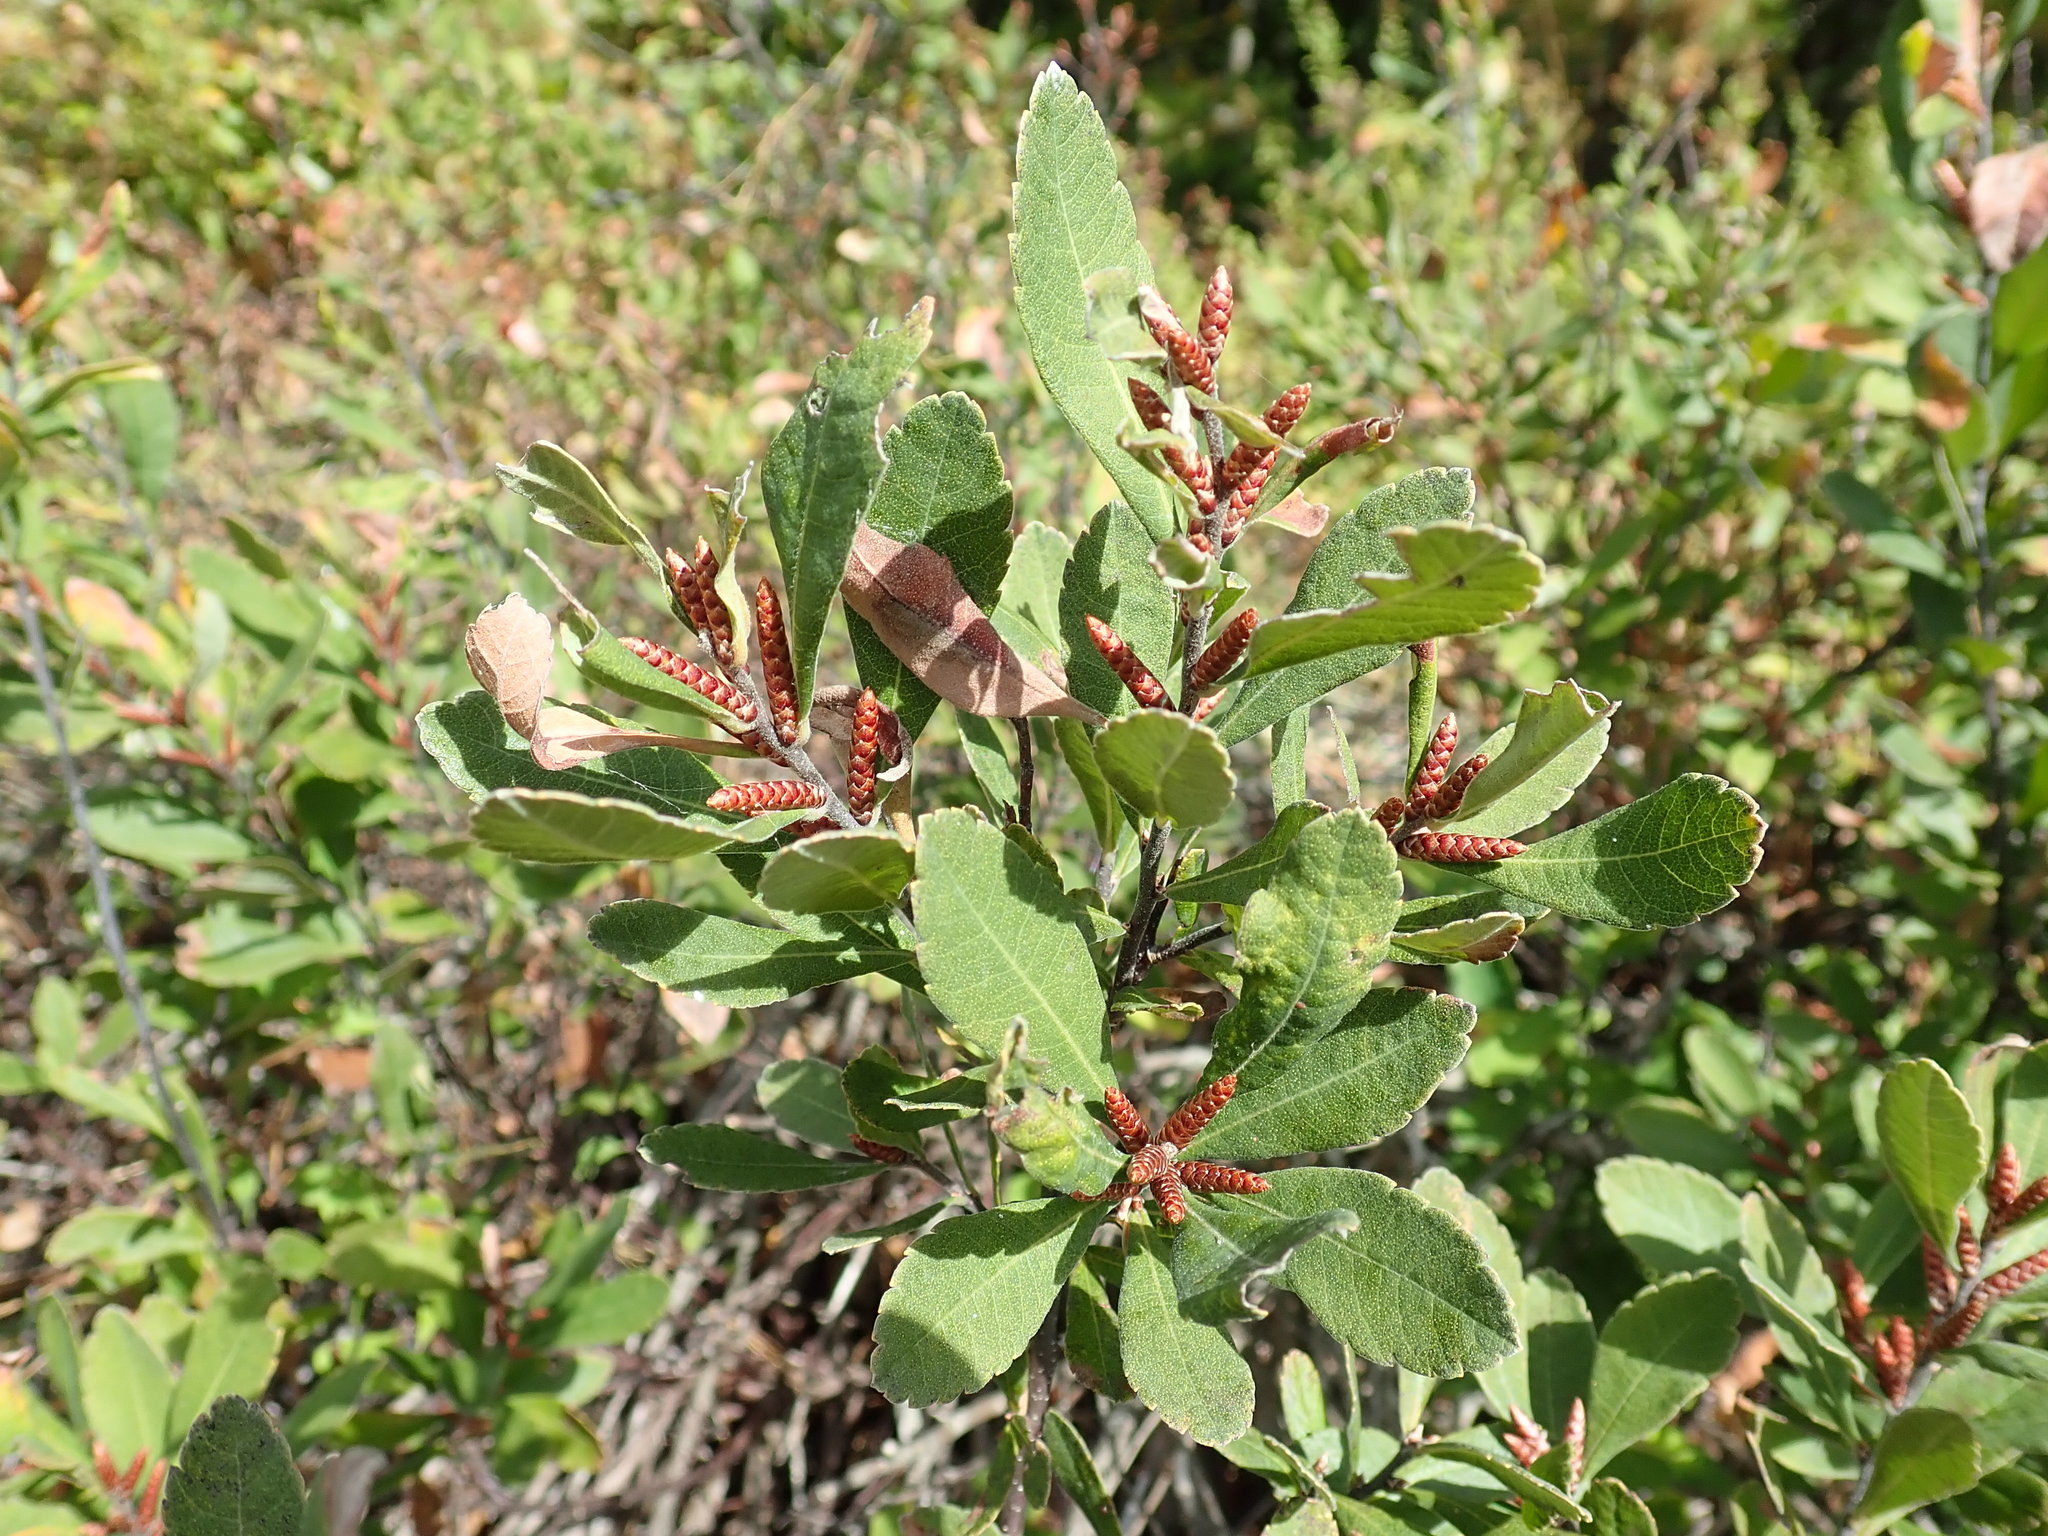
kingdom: Plantae
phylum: Tracheophyta
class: Magnoliopsida
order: Fagales
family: Myricaceae
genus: Myrica
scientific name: Myrica gale
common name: Sweet gale
